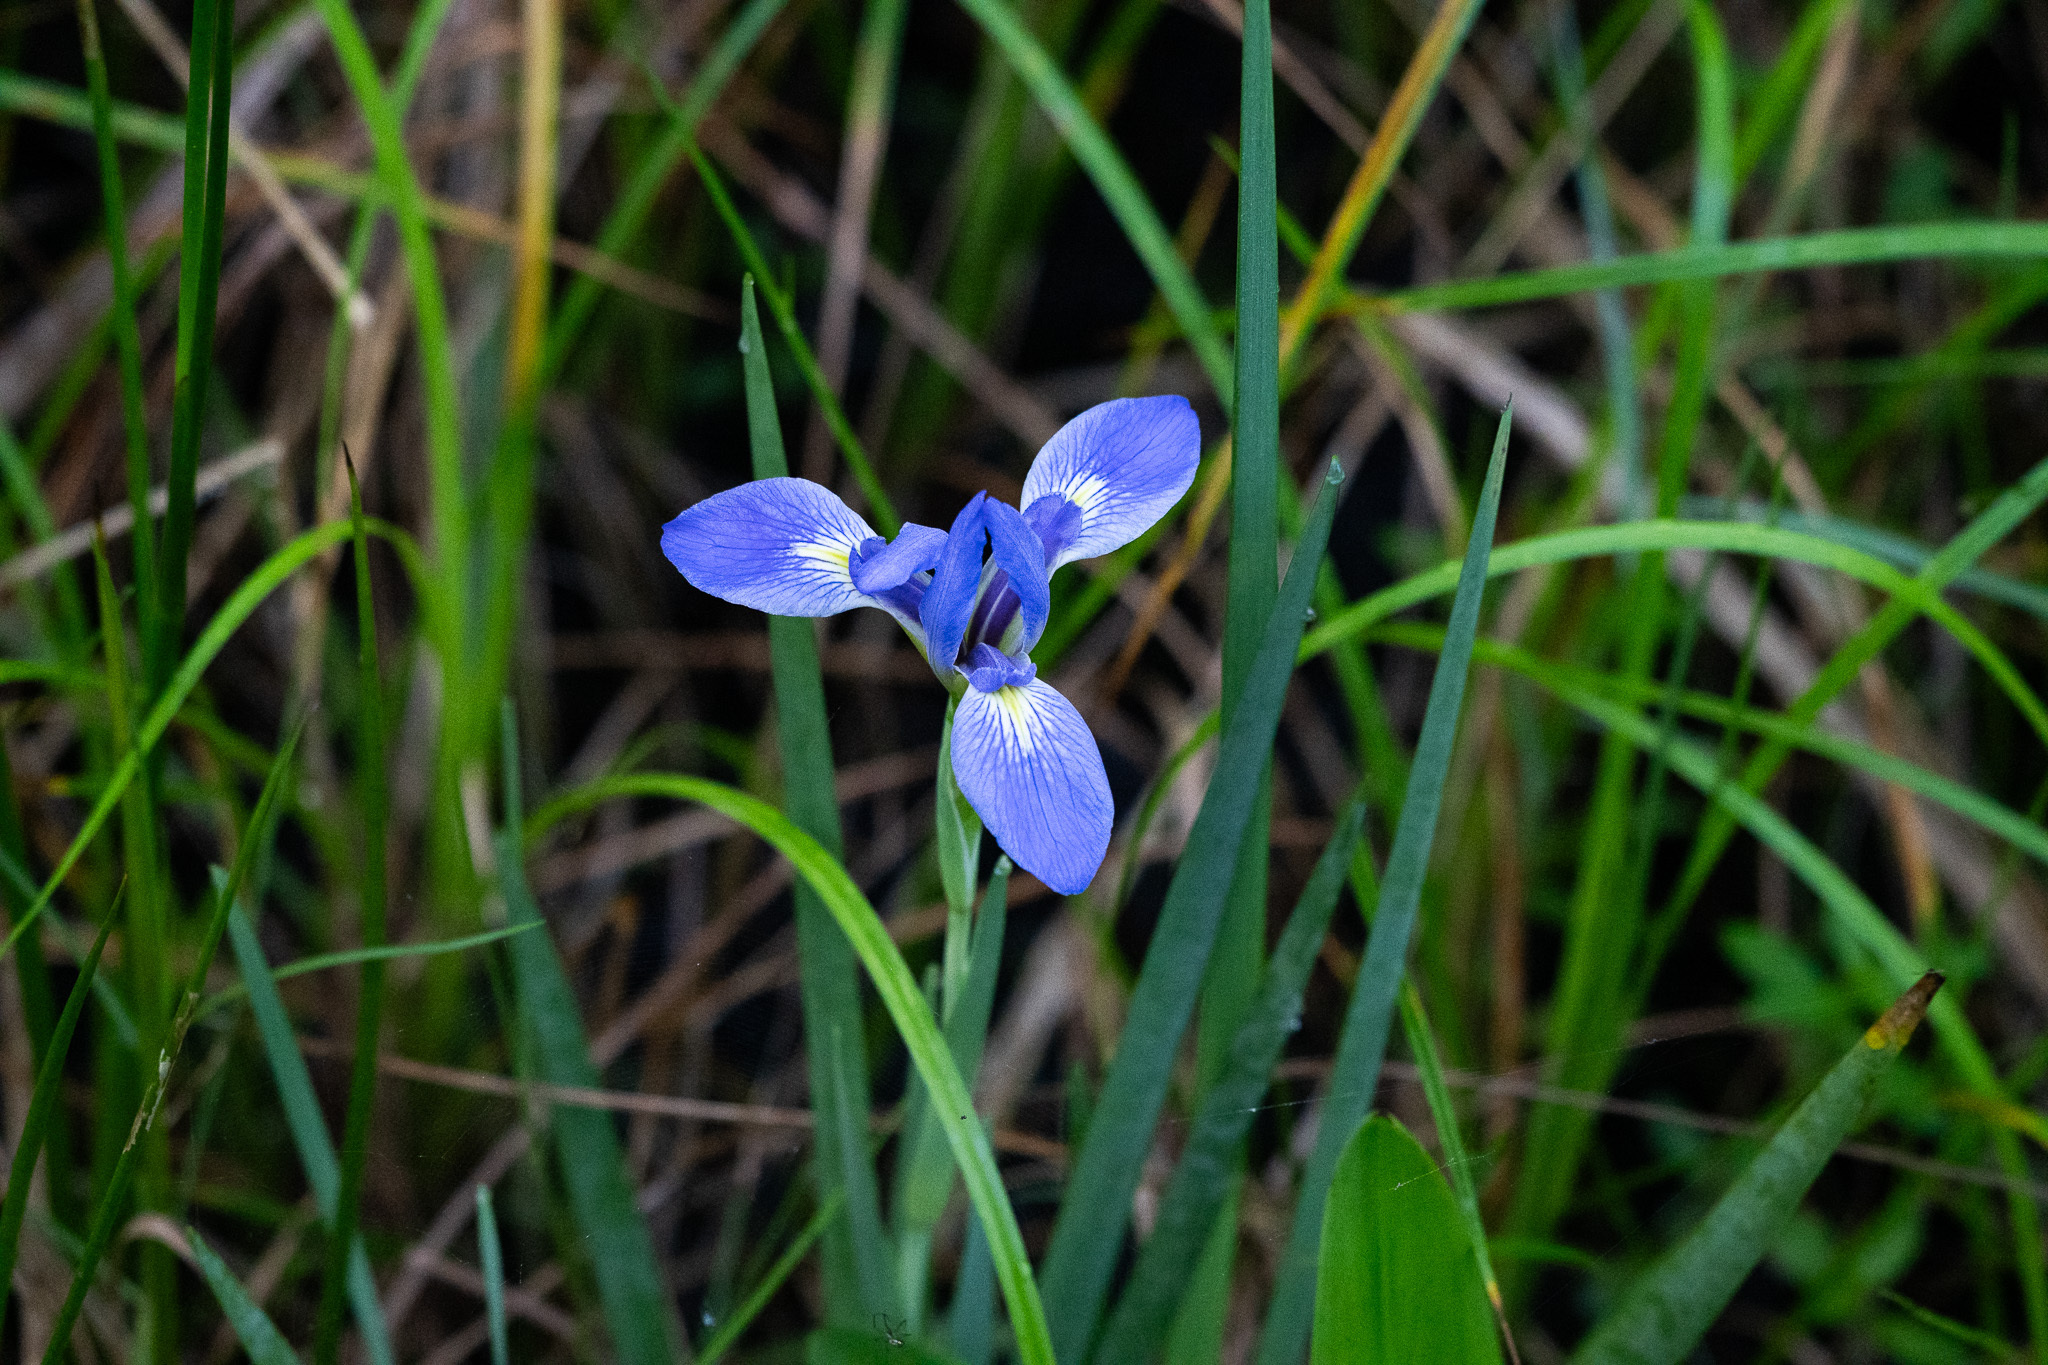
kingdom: Plantae
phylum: Tracheophyta
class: Liliopsida
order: Asparagales
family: Iridaceae
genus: Iris
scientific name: Iris savannarum
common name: Prairie iris
